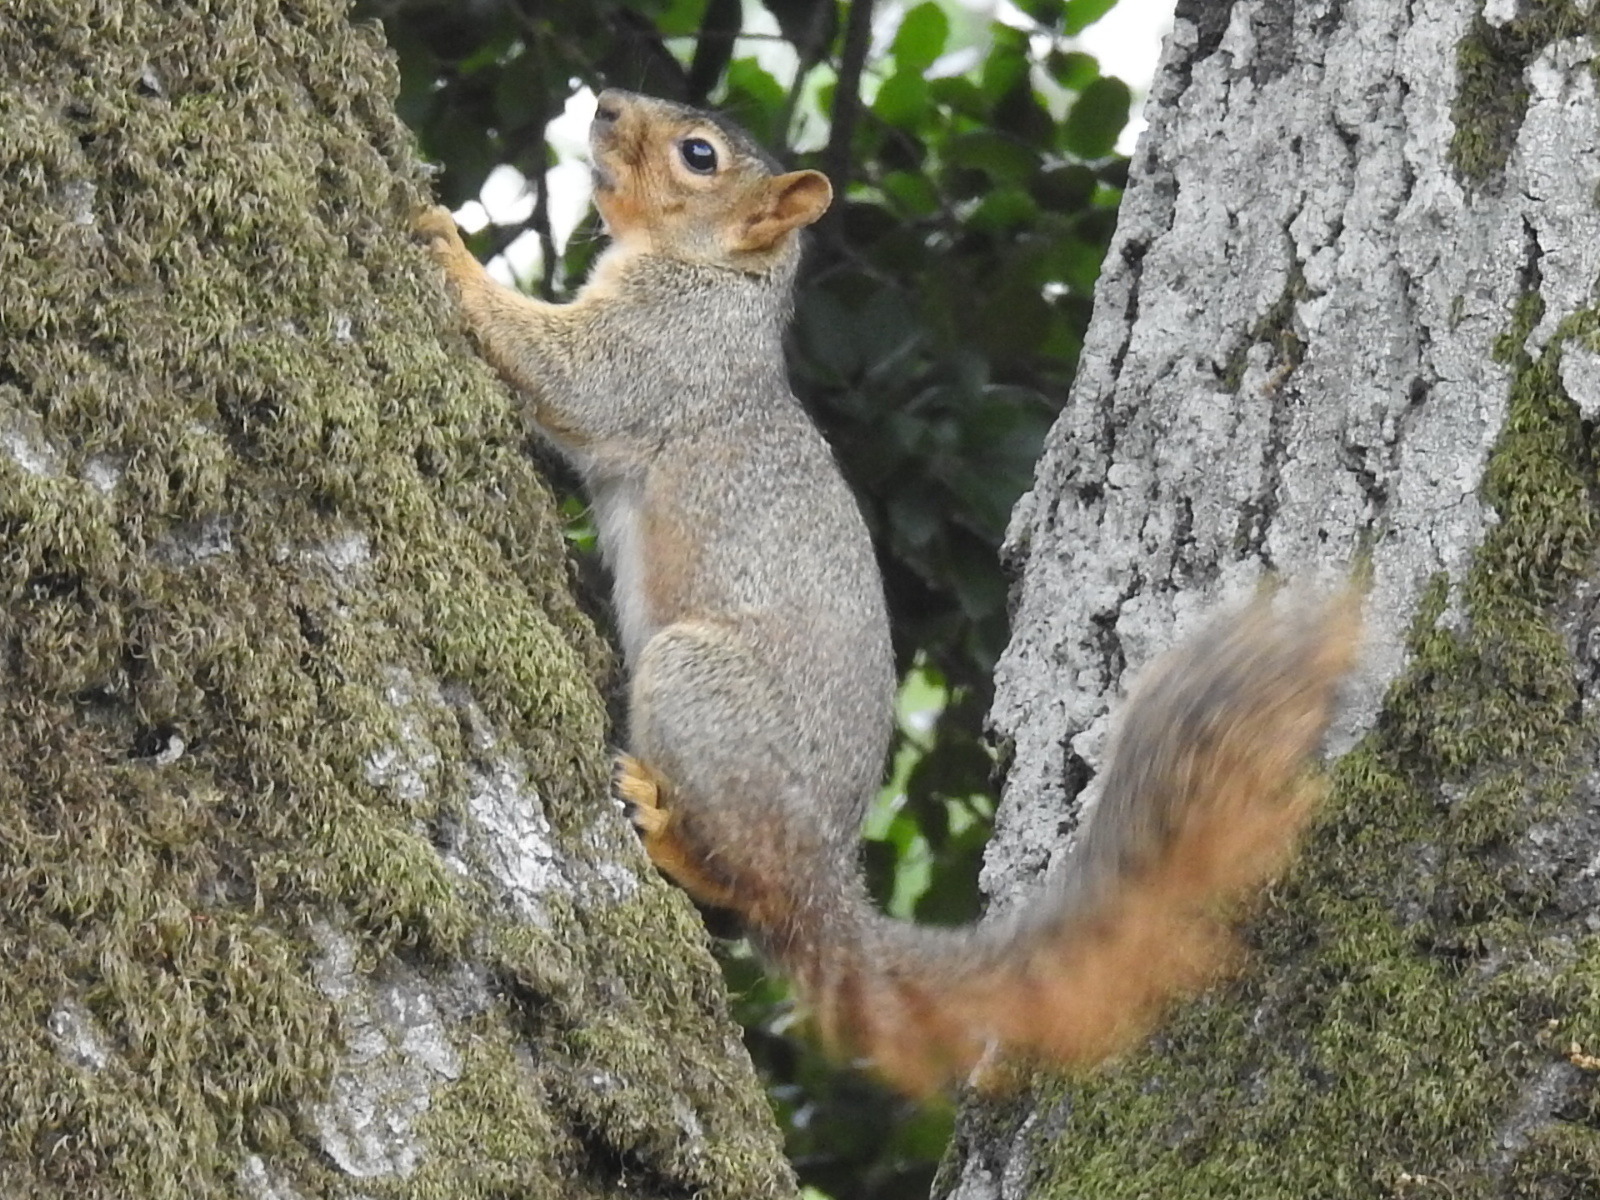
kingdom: Animalia
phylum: Chordata
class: Mammalia
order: Rodentia
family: Sciuridae
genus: Sciurus
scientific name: Sciurus niger
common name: Fox squirrel
